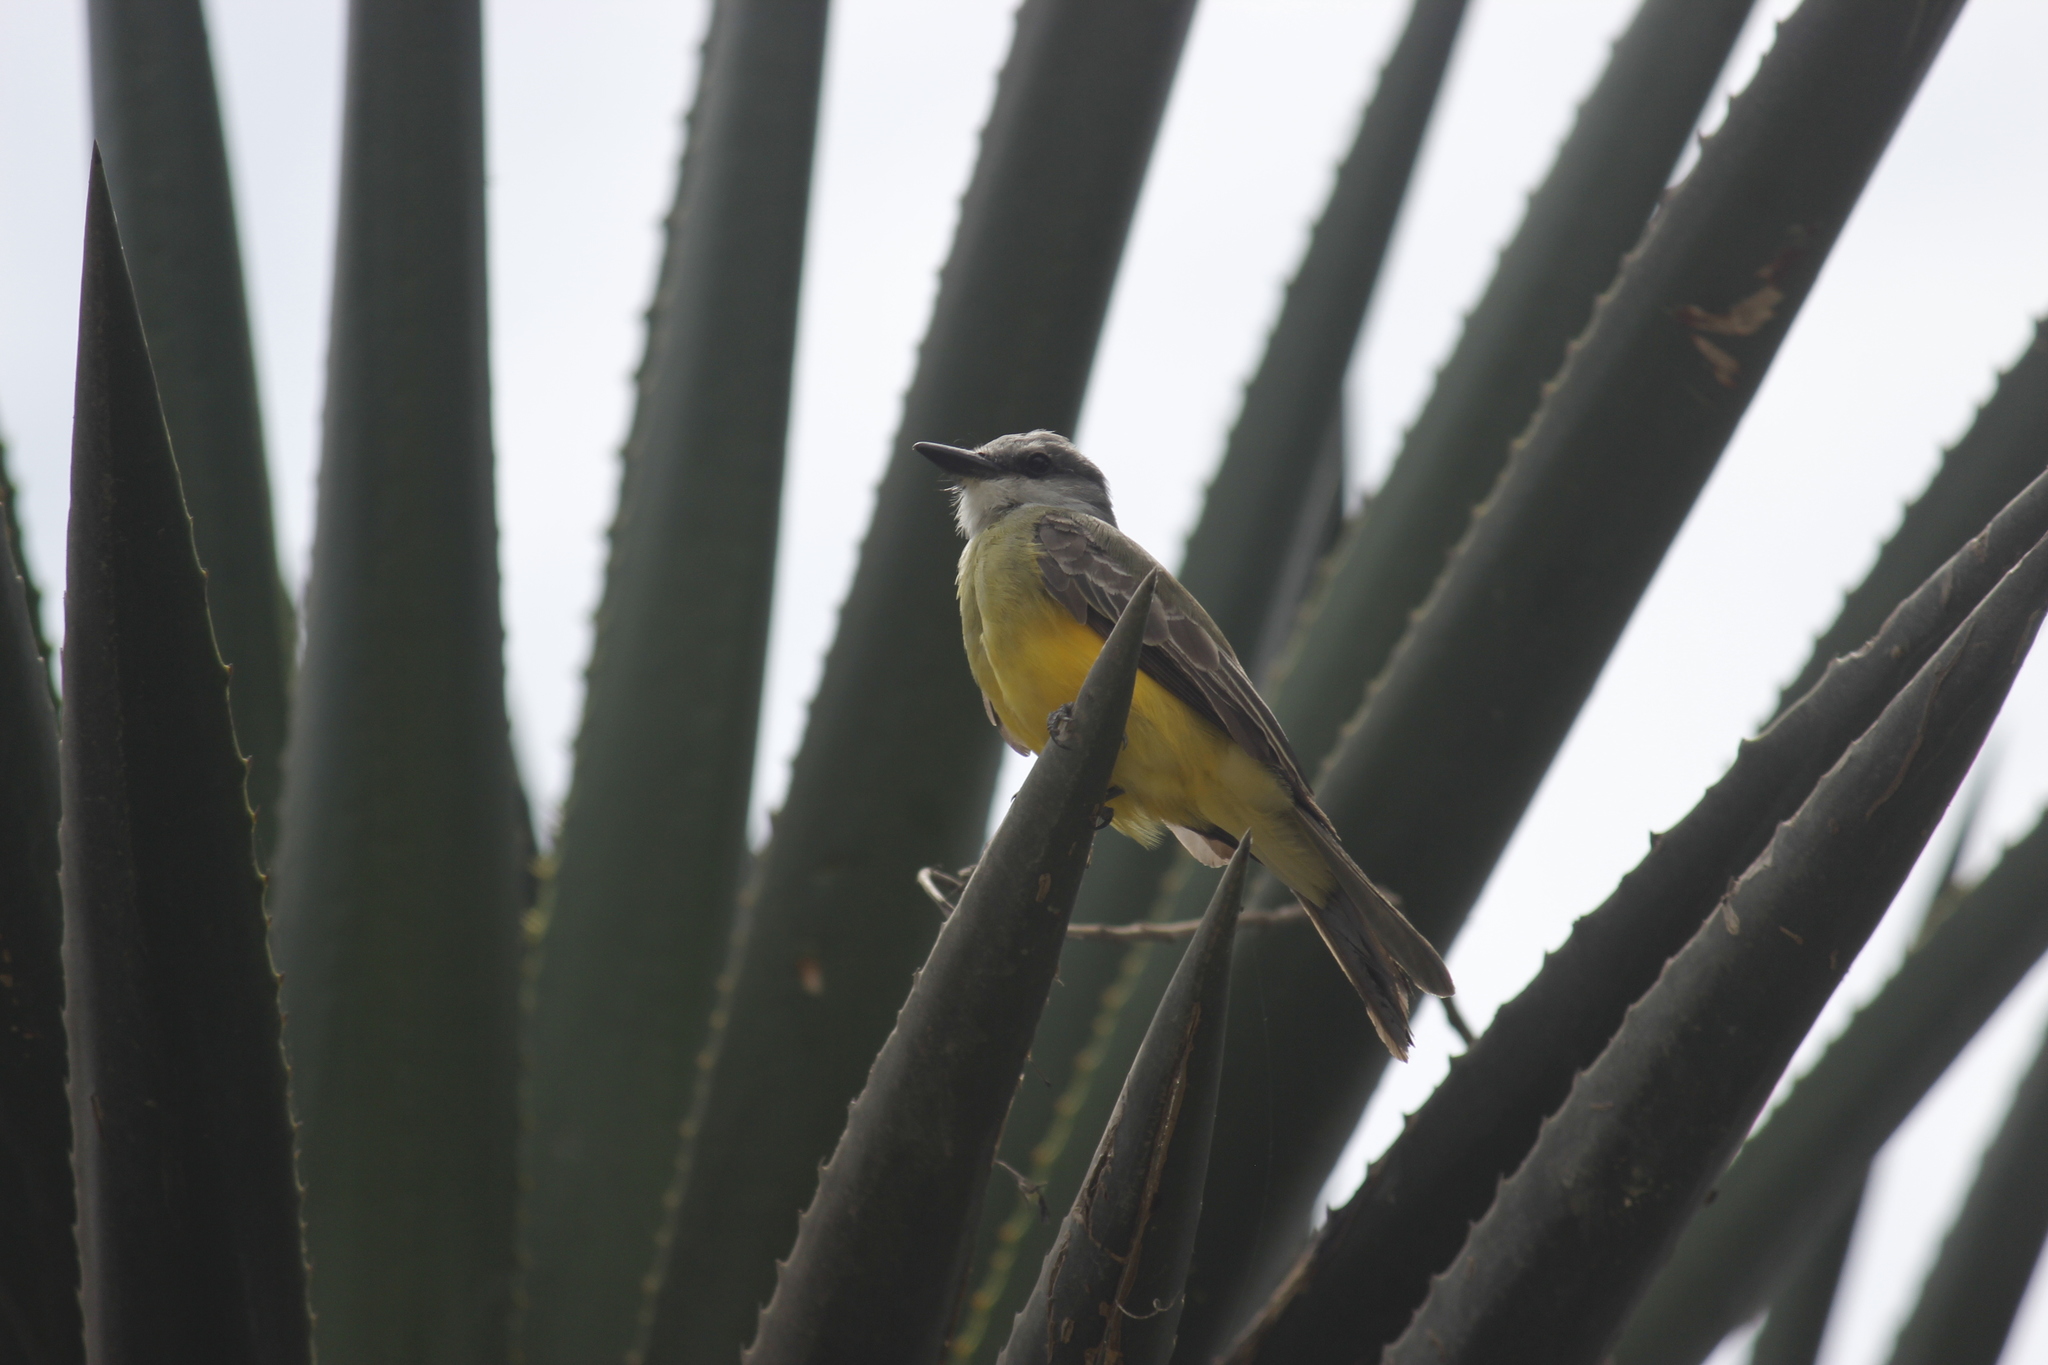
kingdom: Animalia
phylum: Chordata
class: Aves
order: Passeriformes
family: Tyrannidae
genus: Tyrannus
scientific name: Tyrannus melancholicus
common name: Tropical kingbird
